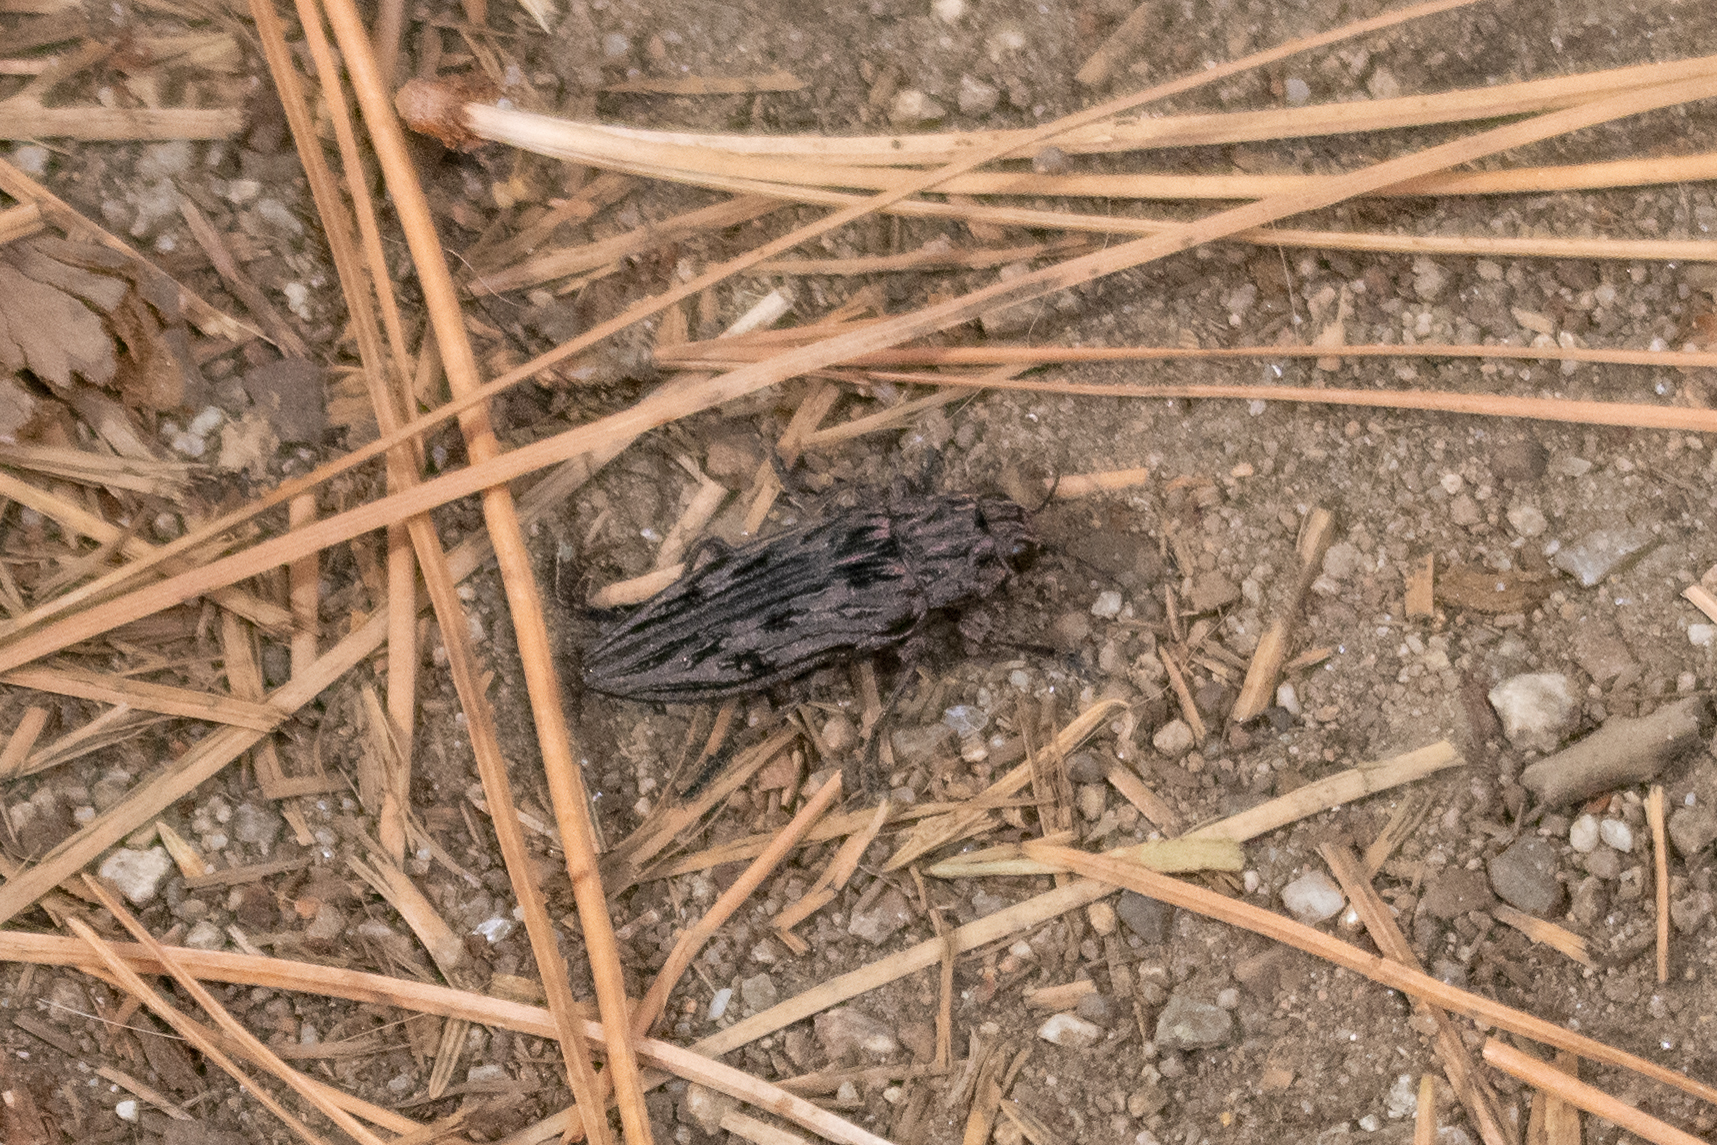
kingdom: Animalia
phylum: Arthropoda
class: Insecta
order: Coleoptera
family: Buprestidae
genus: Chalcophora
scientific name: Chalcophora angulicollis
